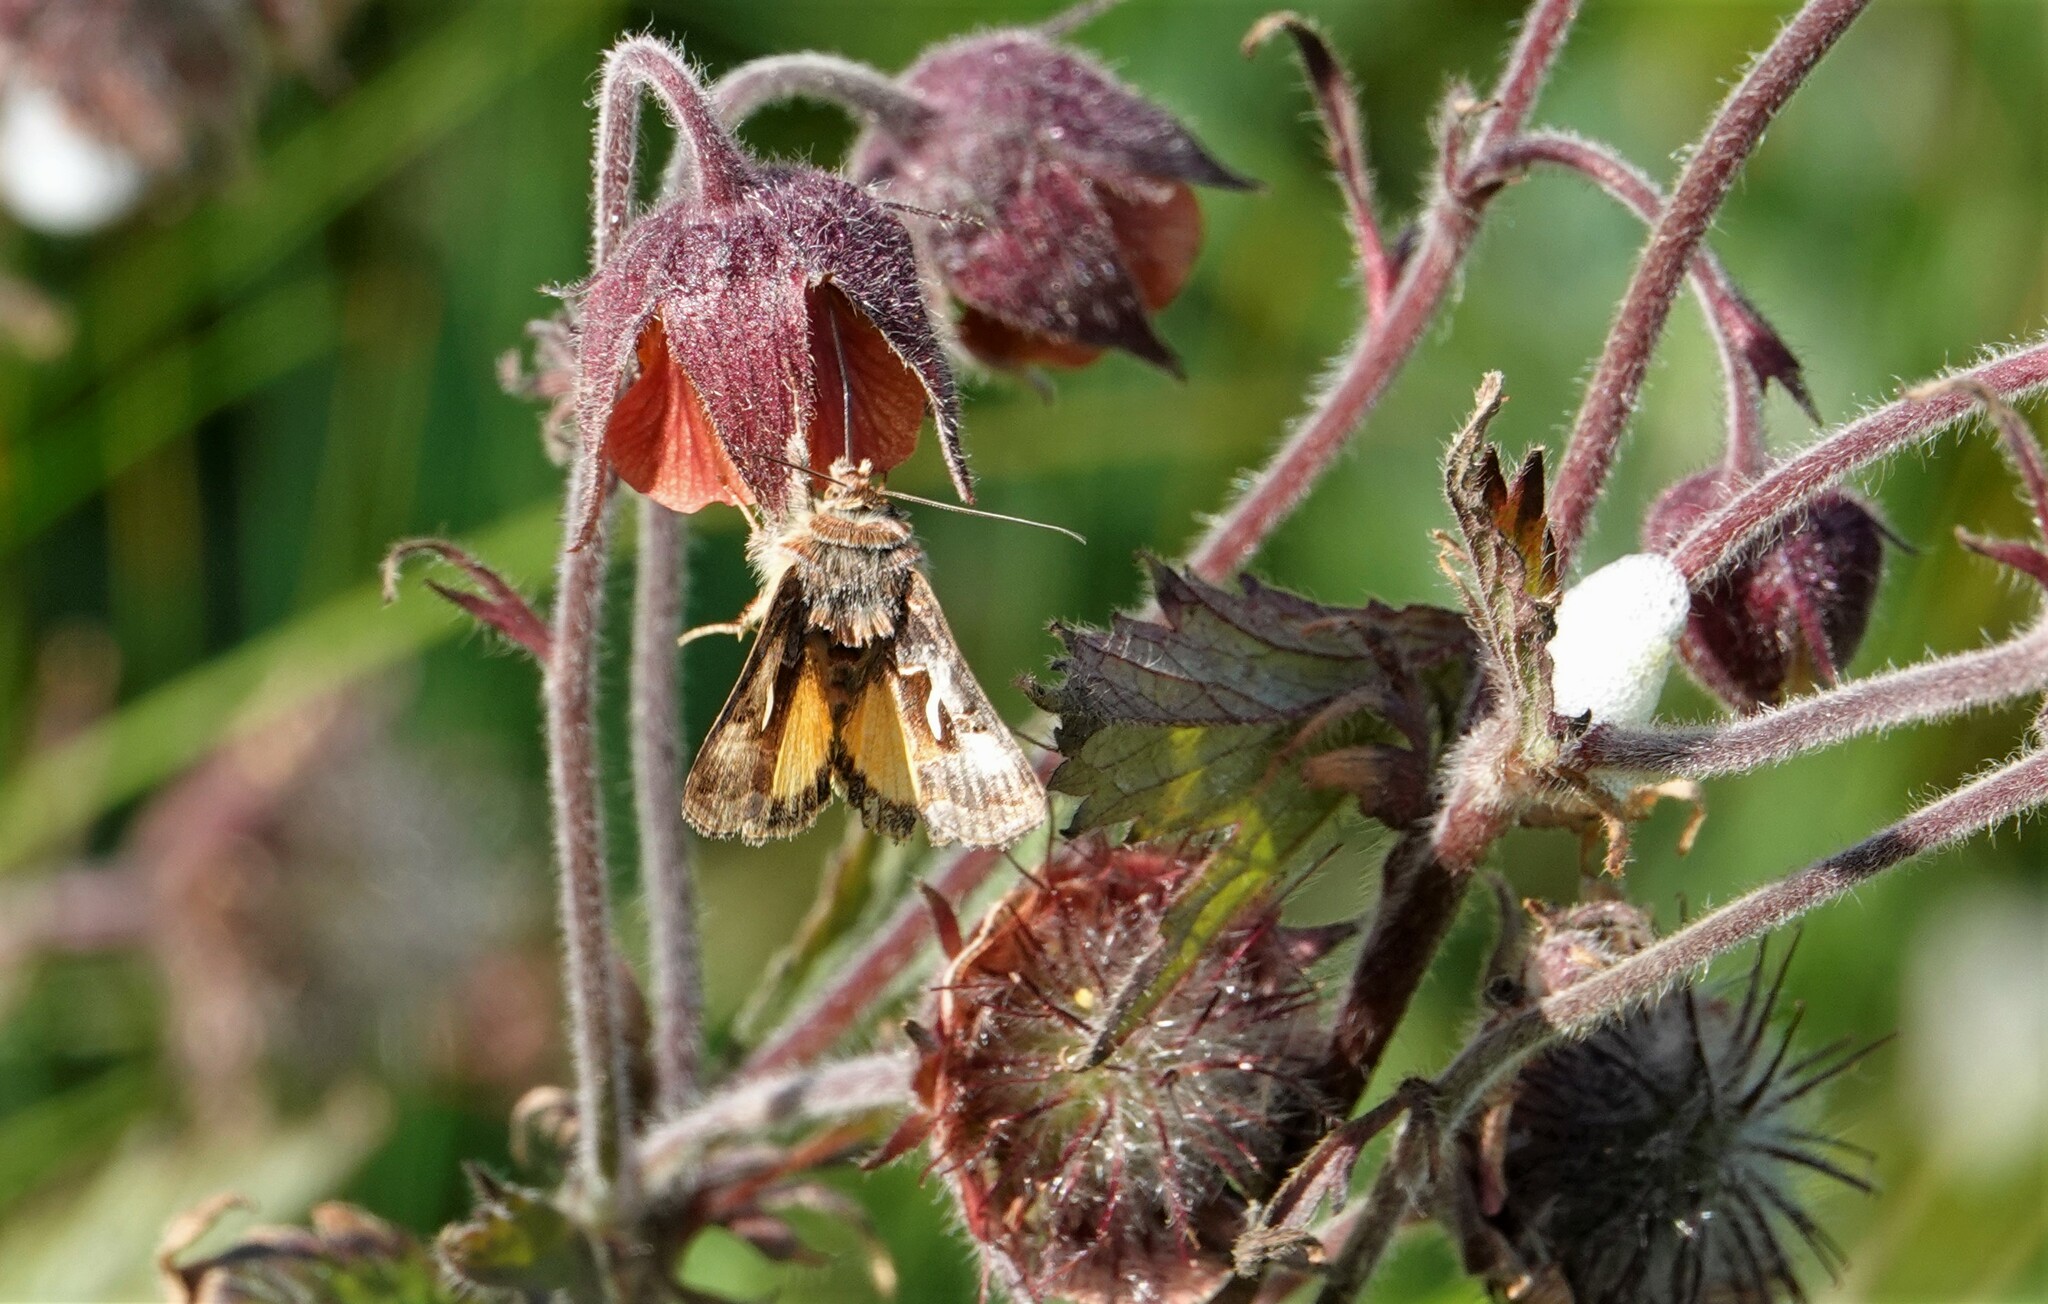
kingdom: Animalia
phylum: Arthropoda
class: Insecta
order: Lepidoptera
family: Noctuidae
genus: Syngrapha
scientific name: Syngrapha ignea
